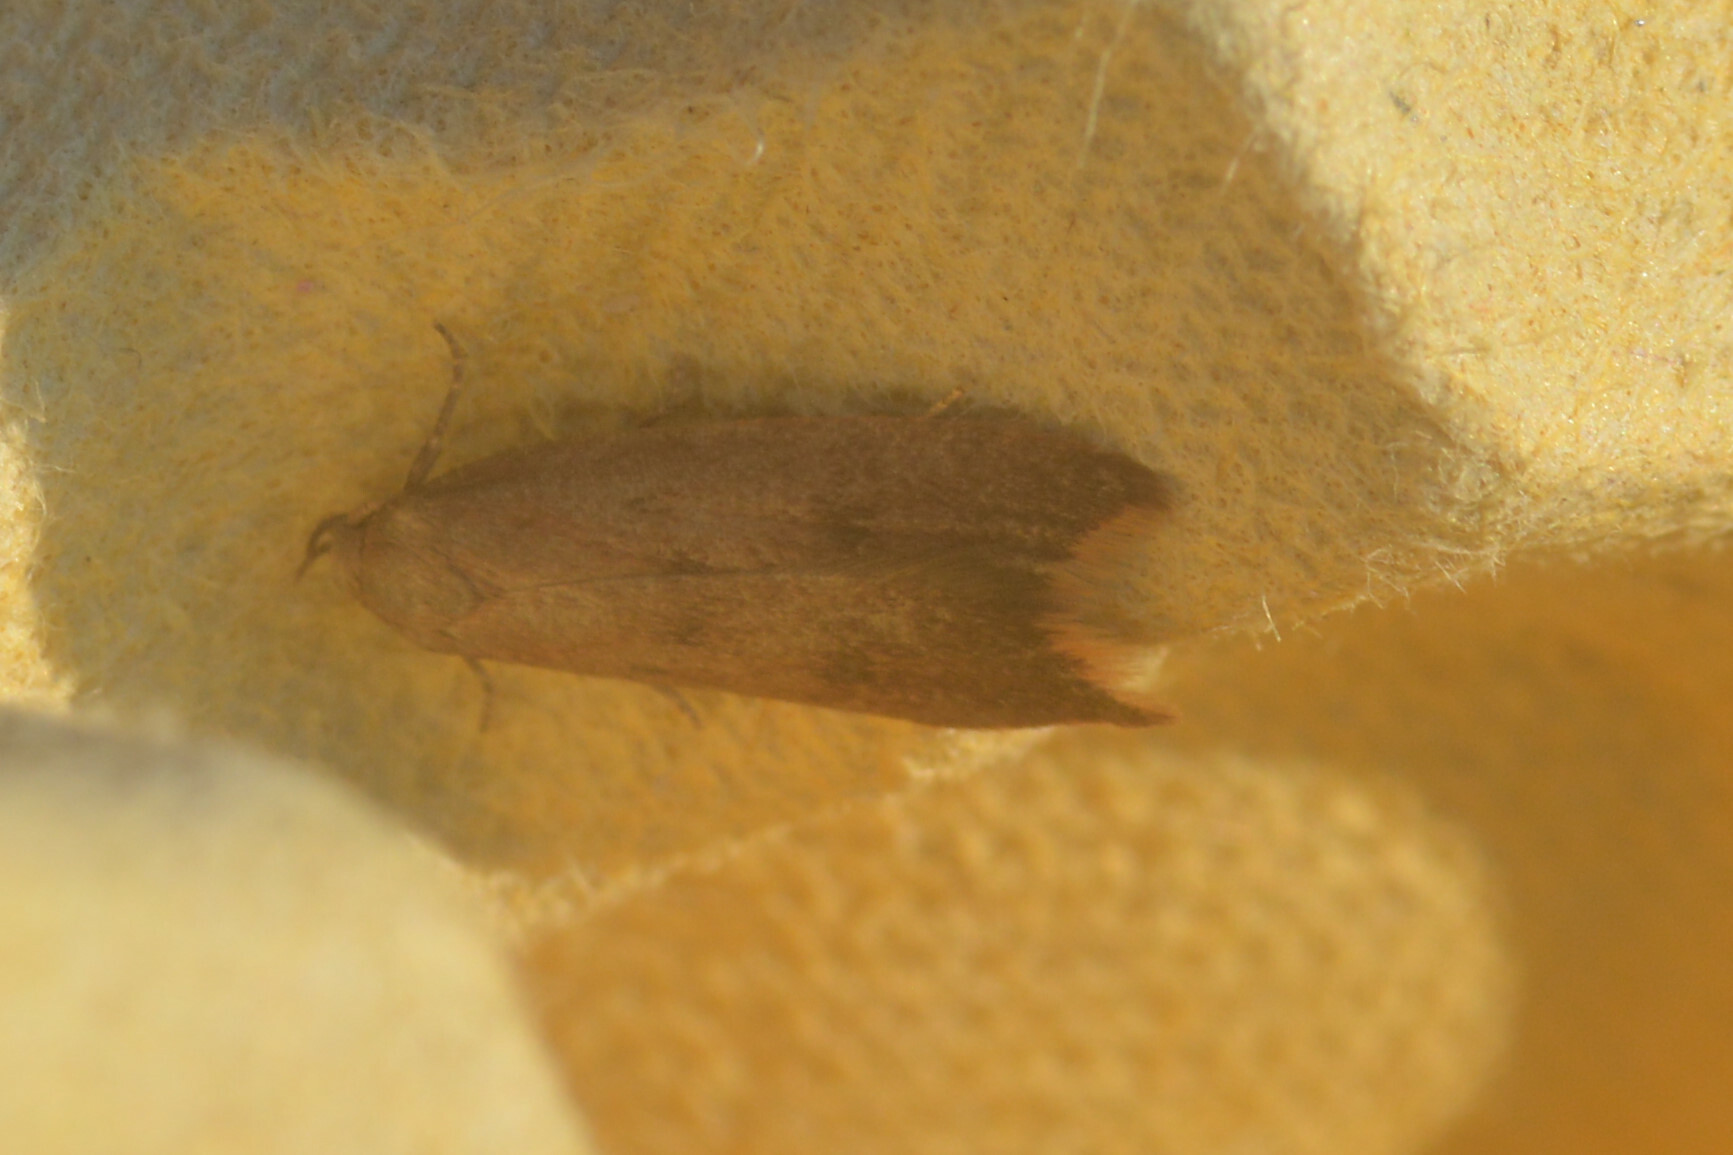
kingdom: Animalia
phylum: Arthropoda
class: Insecta
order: Lepidoptera
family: Oecophoridae
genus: Tachystola
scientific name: Tachystola acroxantha
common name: Ruddy streak
